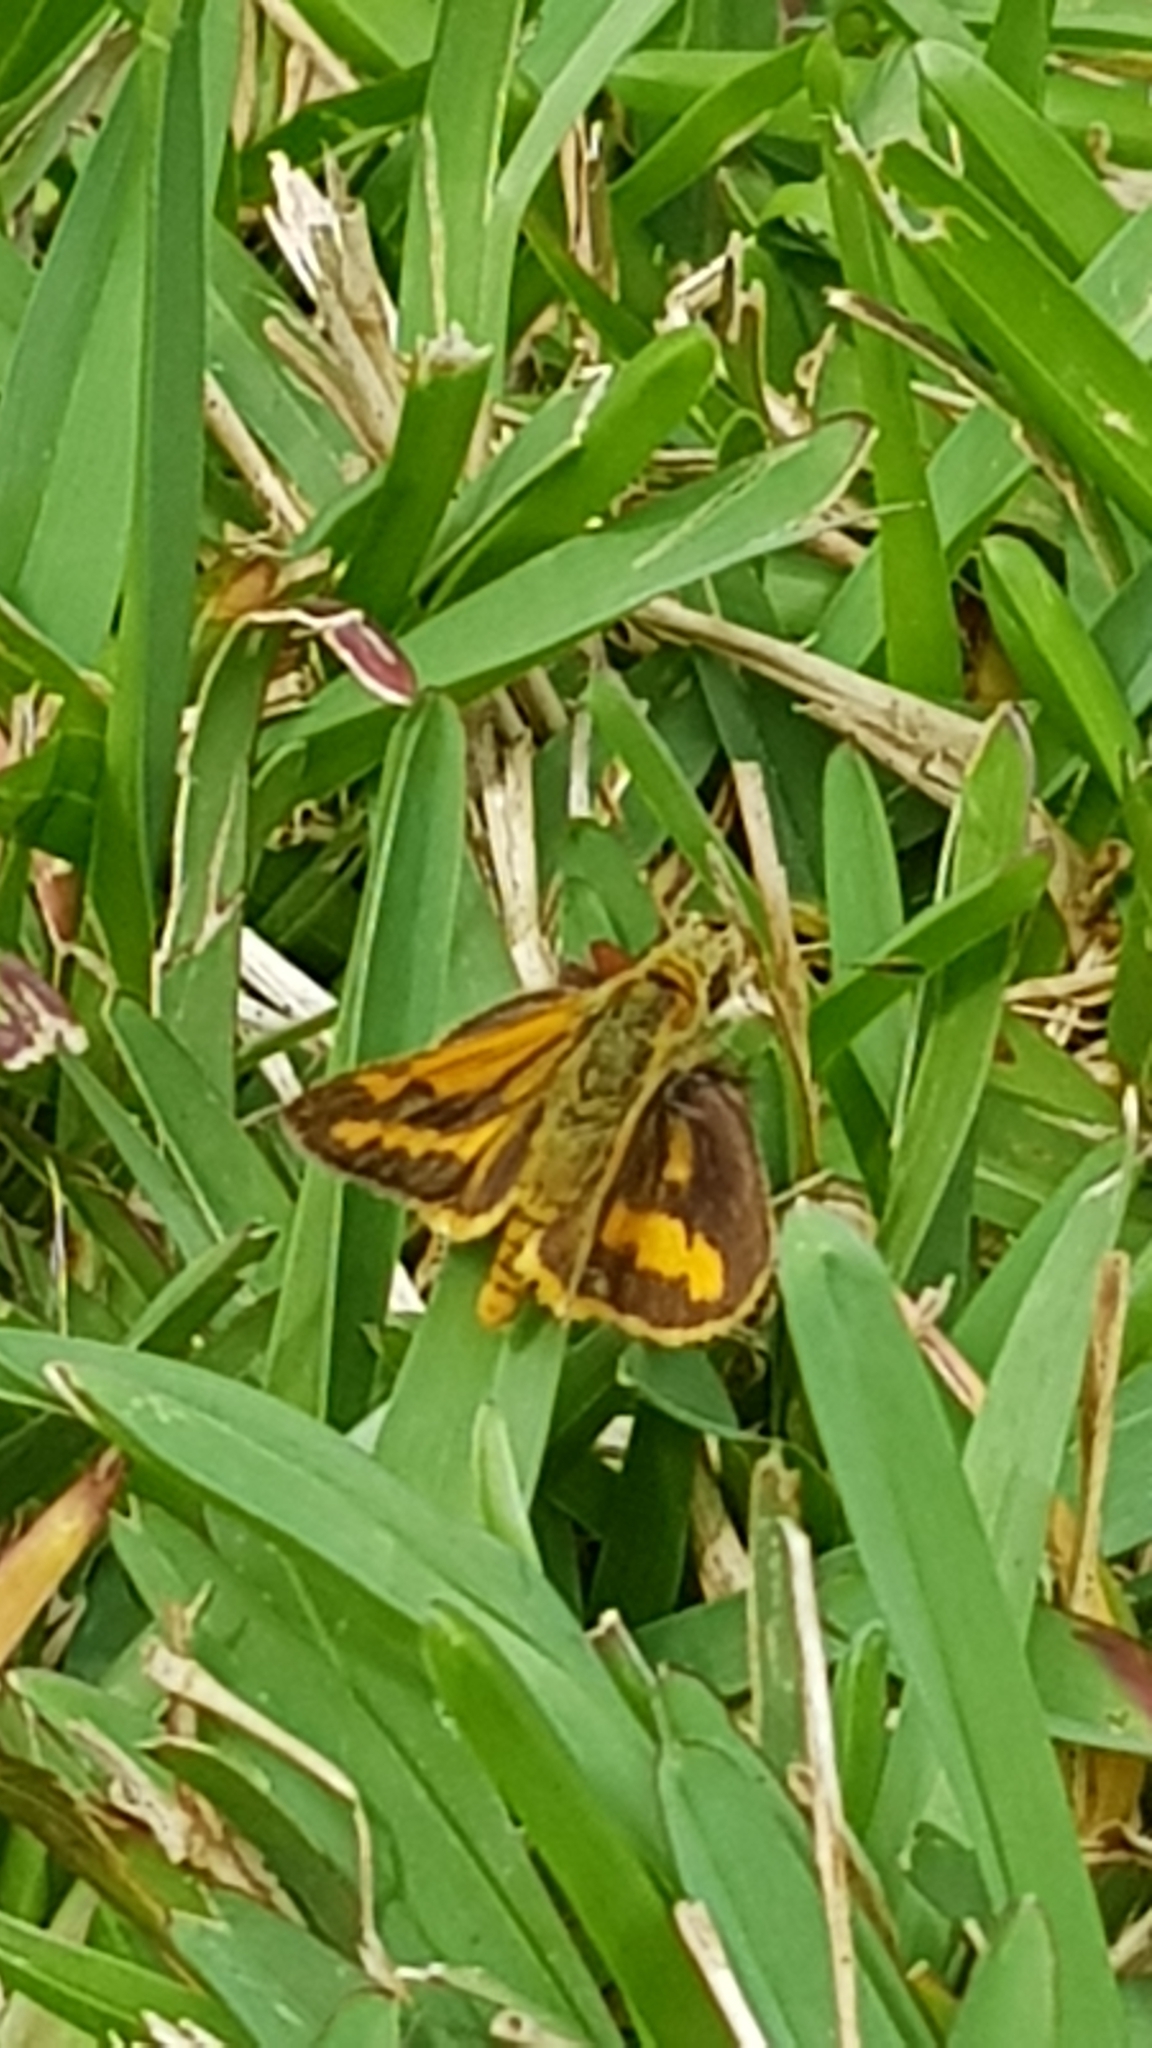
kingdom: Animalia
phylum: Arthropoda
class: Insecta
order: Lepidoptera
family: Hesperiidae
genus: Ocybadistes
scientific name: Ocybadistes walkeri
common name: Yellow-banded dart
